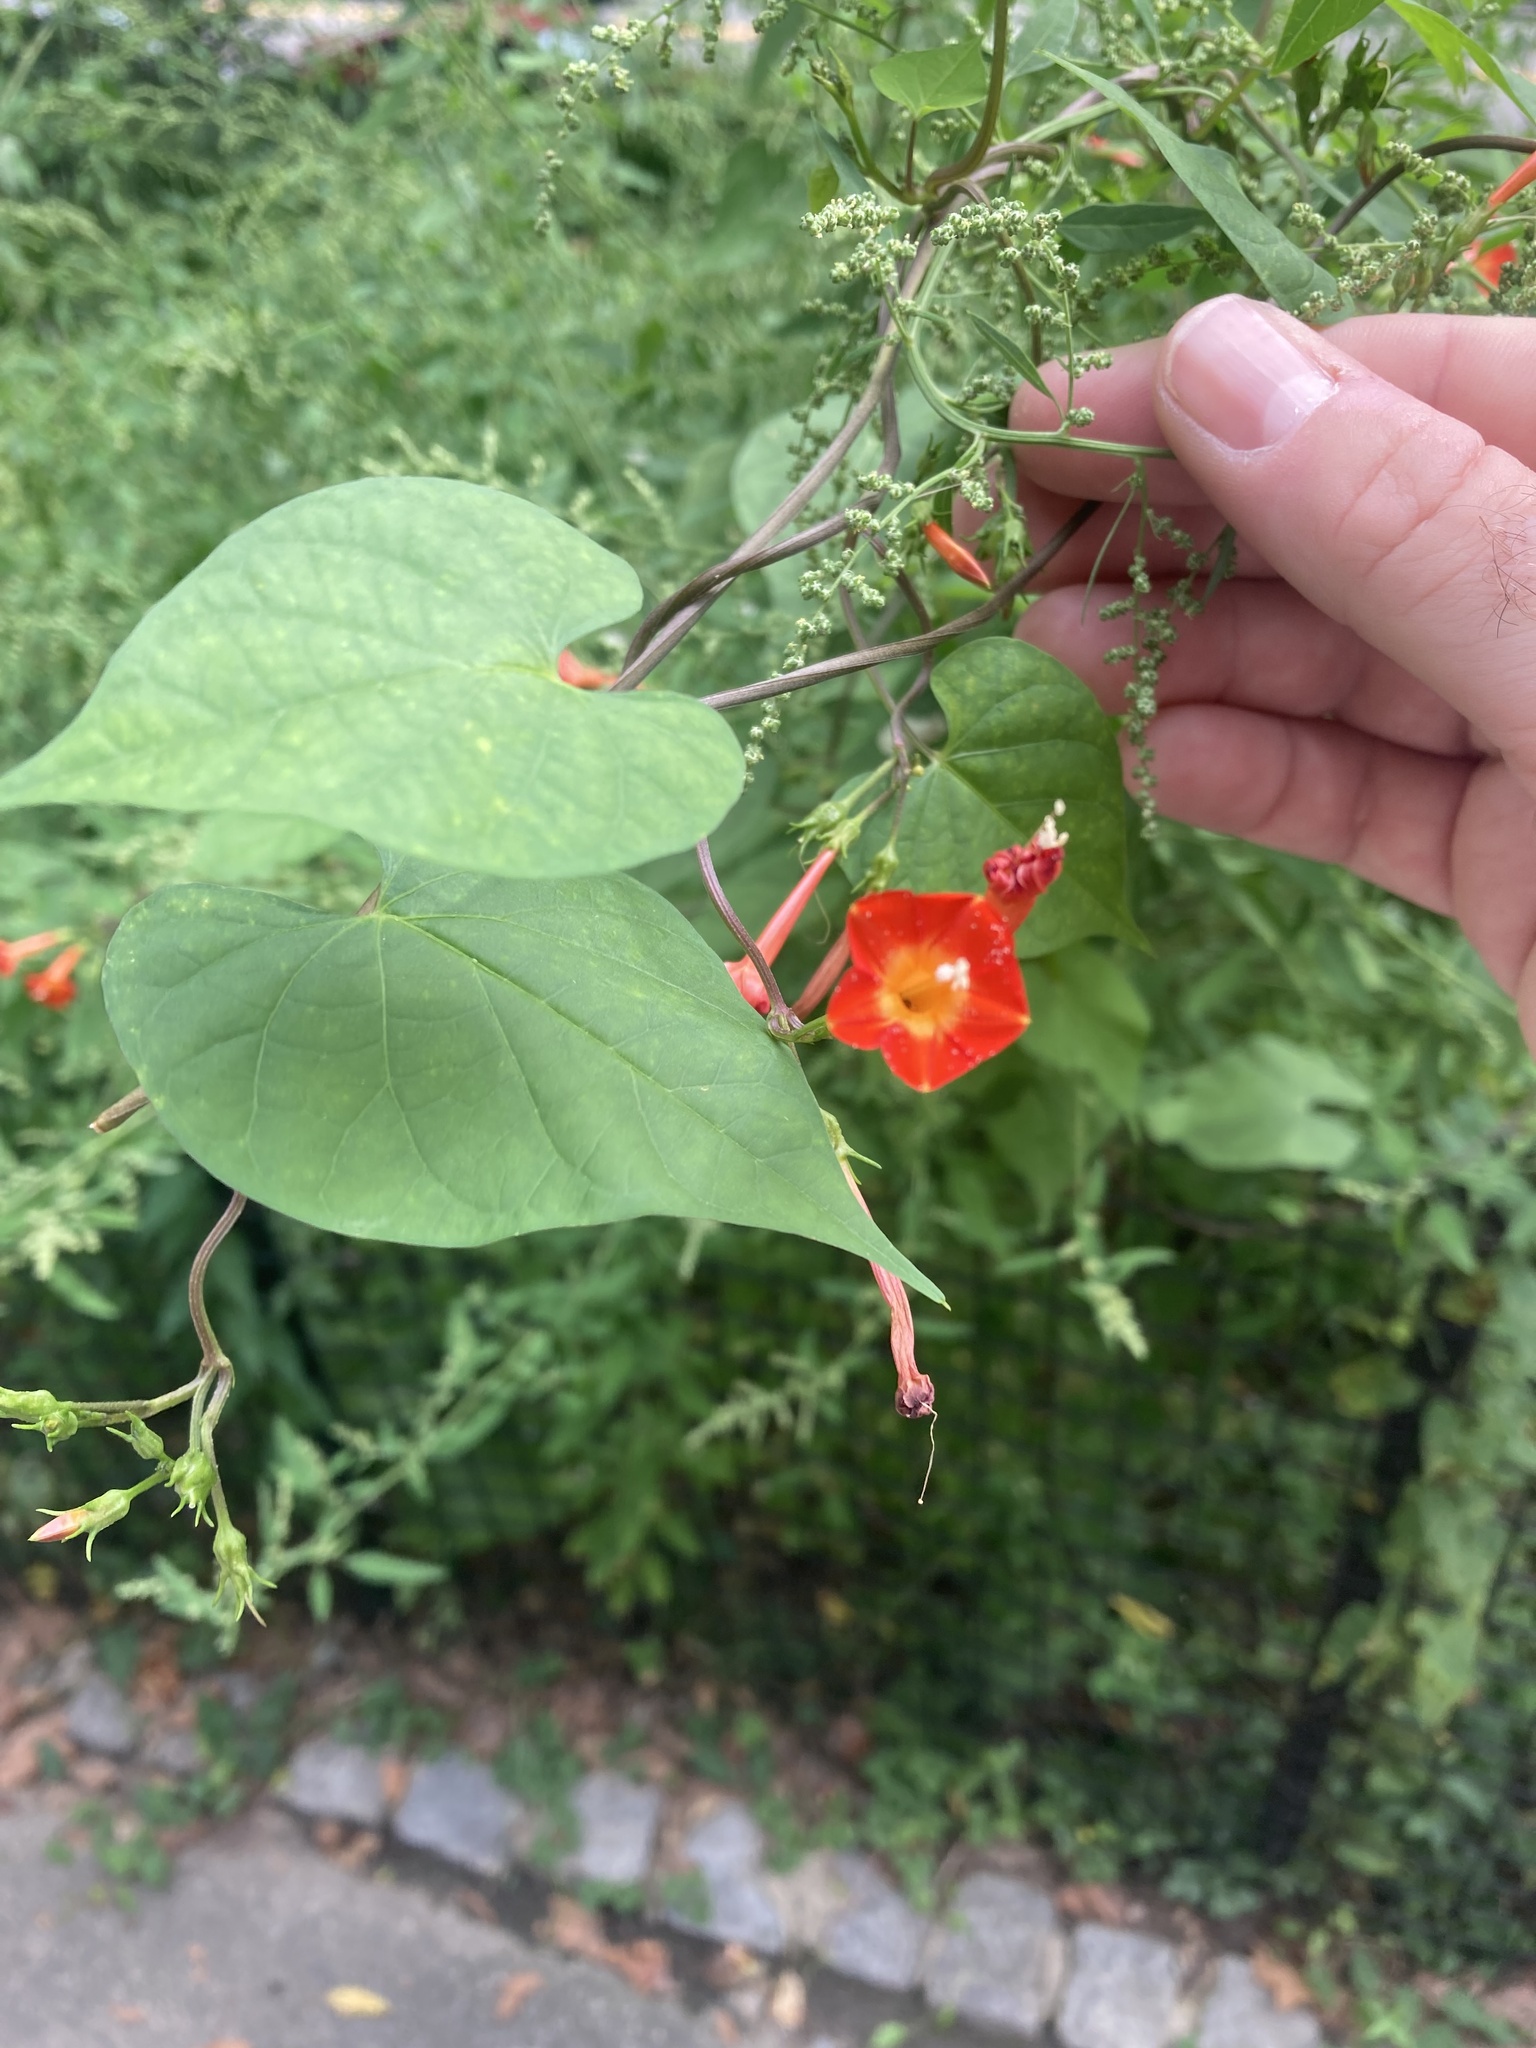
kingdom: Plantae
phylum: Tracheophyta
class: Magnoliopsida
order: Solanales
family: Convolvulaceae
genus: Ipomoea
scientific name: Ipomoea coccinea
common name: Red morning-glory
